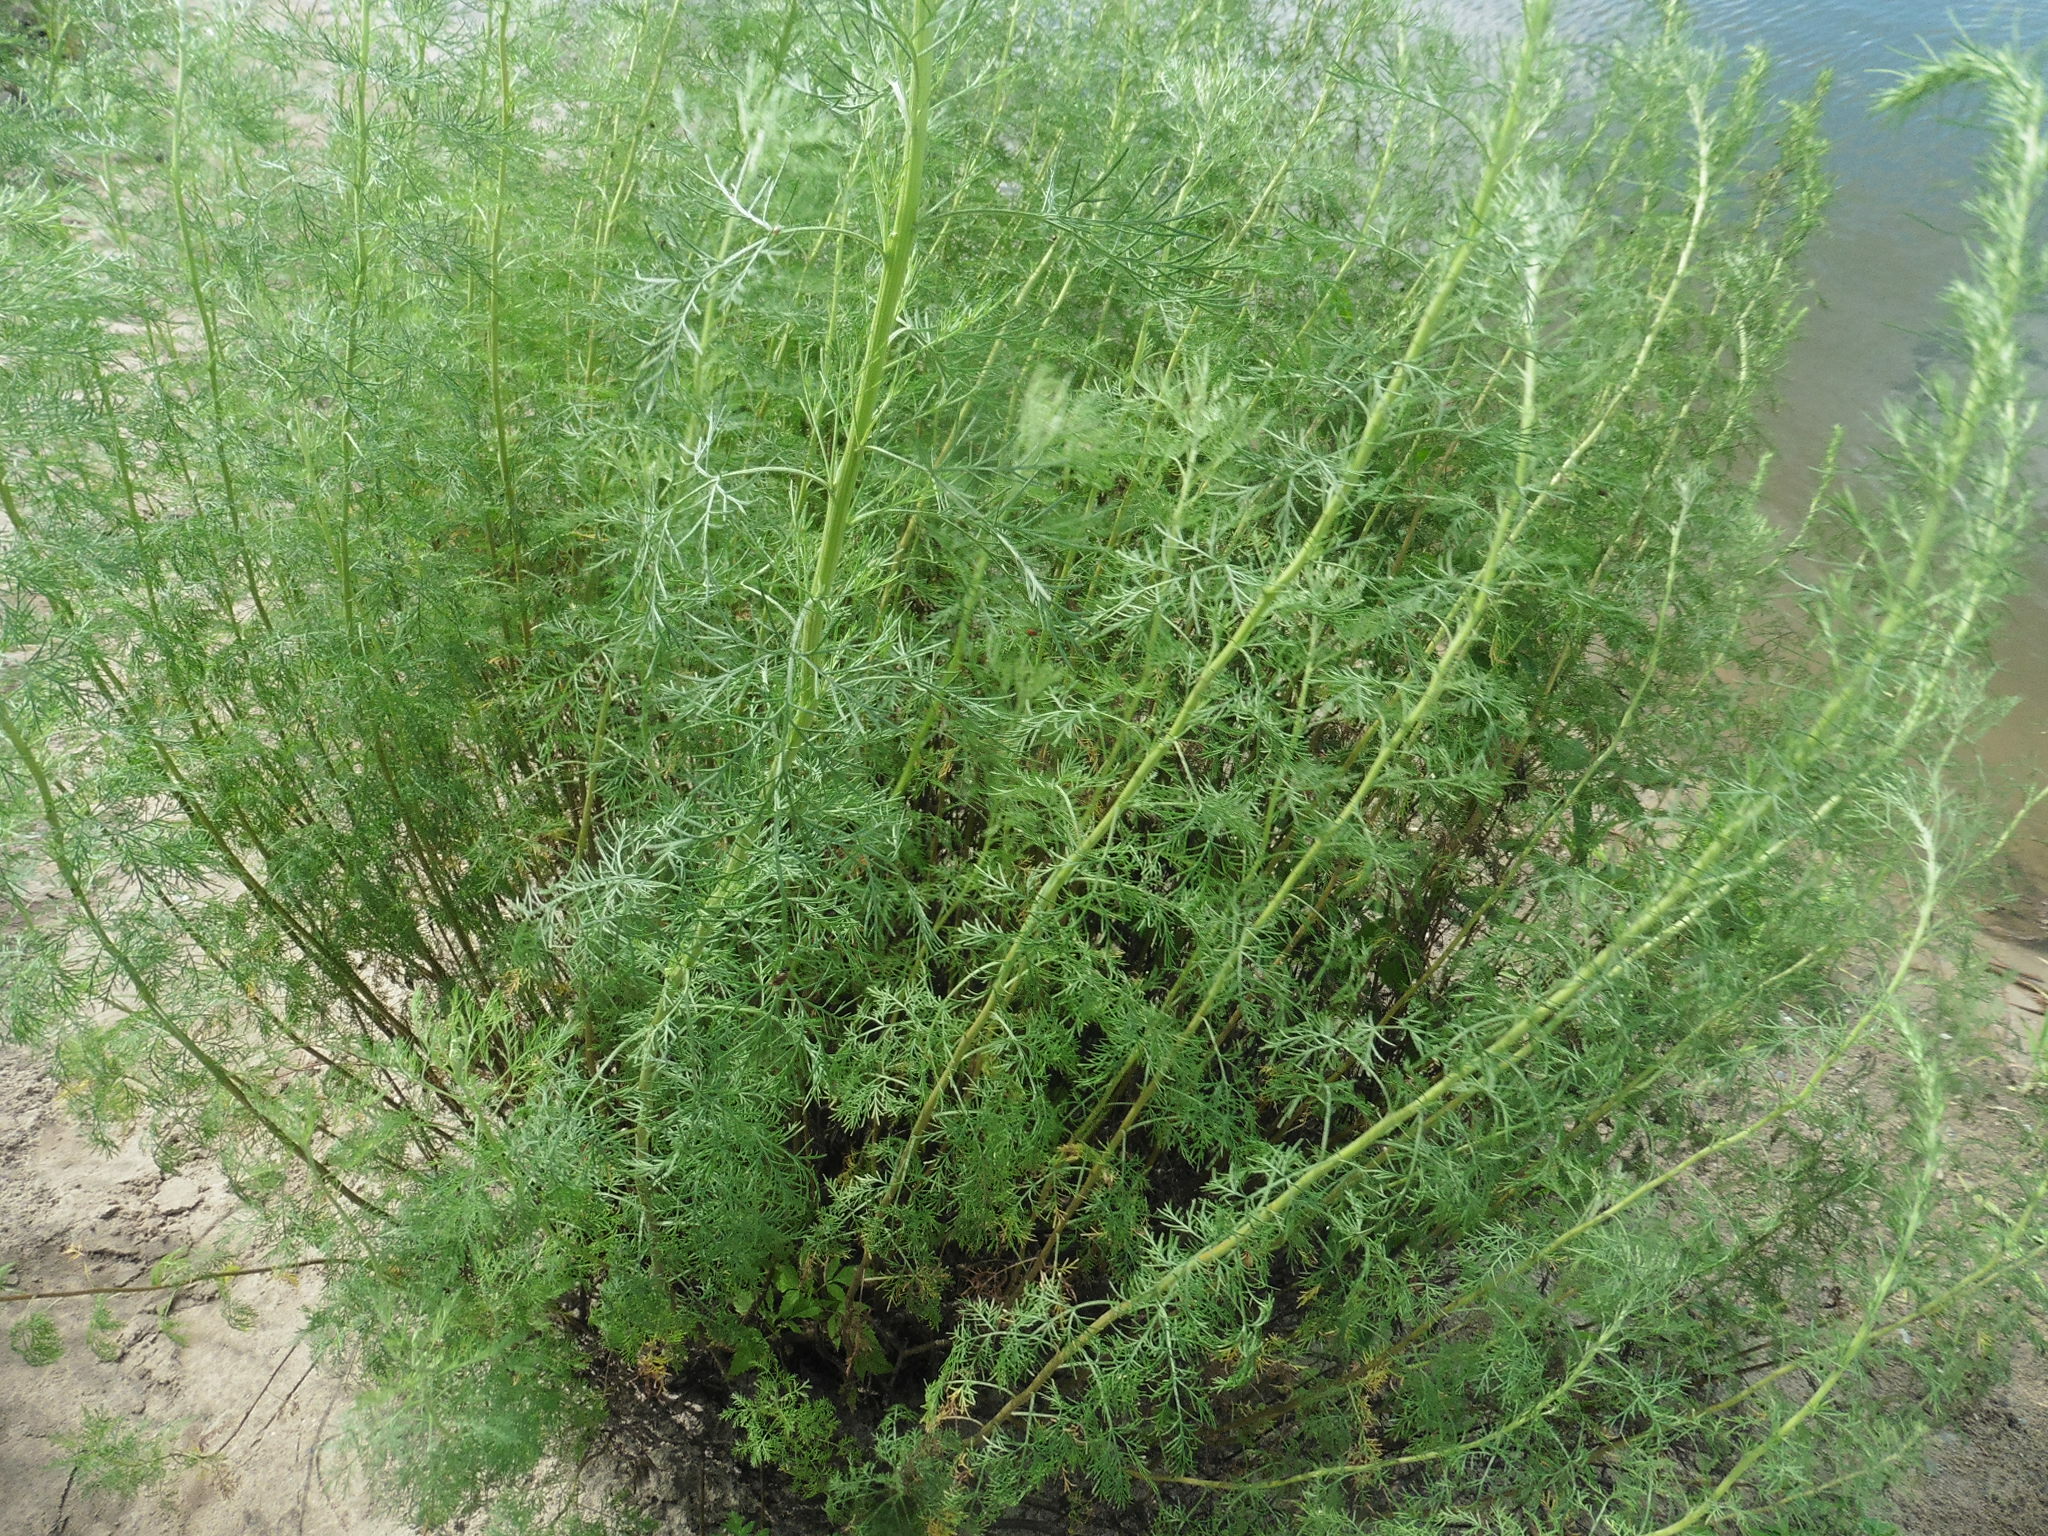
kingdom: Plantae
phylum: Tracheophyta
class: Magnoliopsida
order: Asterales
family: Asteraceae
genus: Artemisia
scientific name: Artemisia abrotanum
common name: Southernwood
